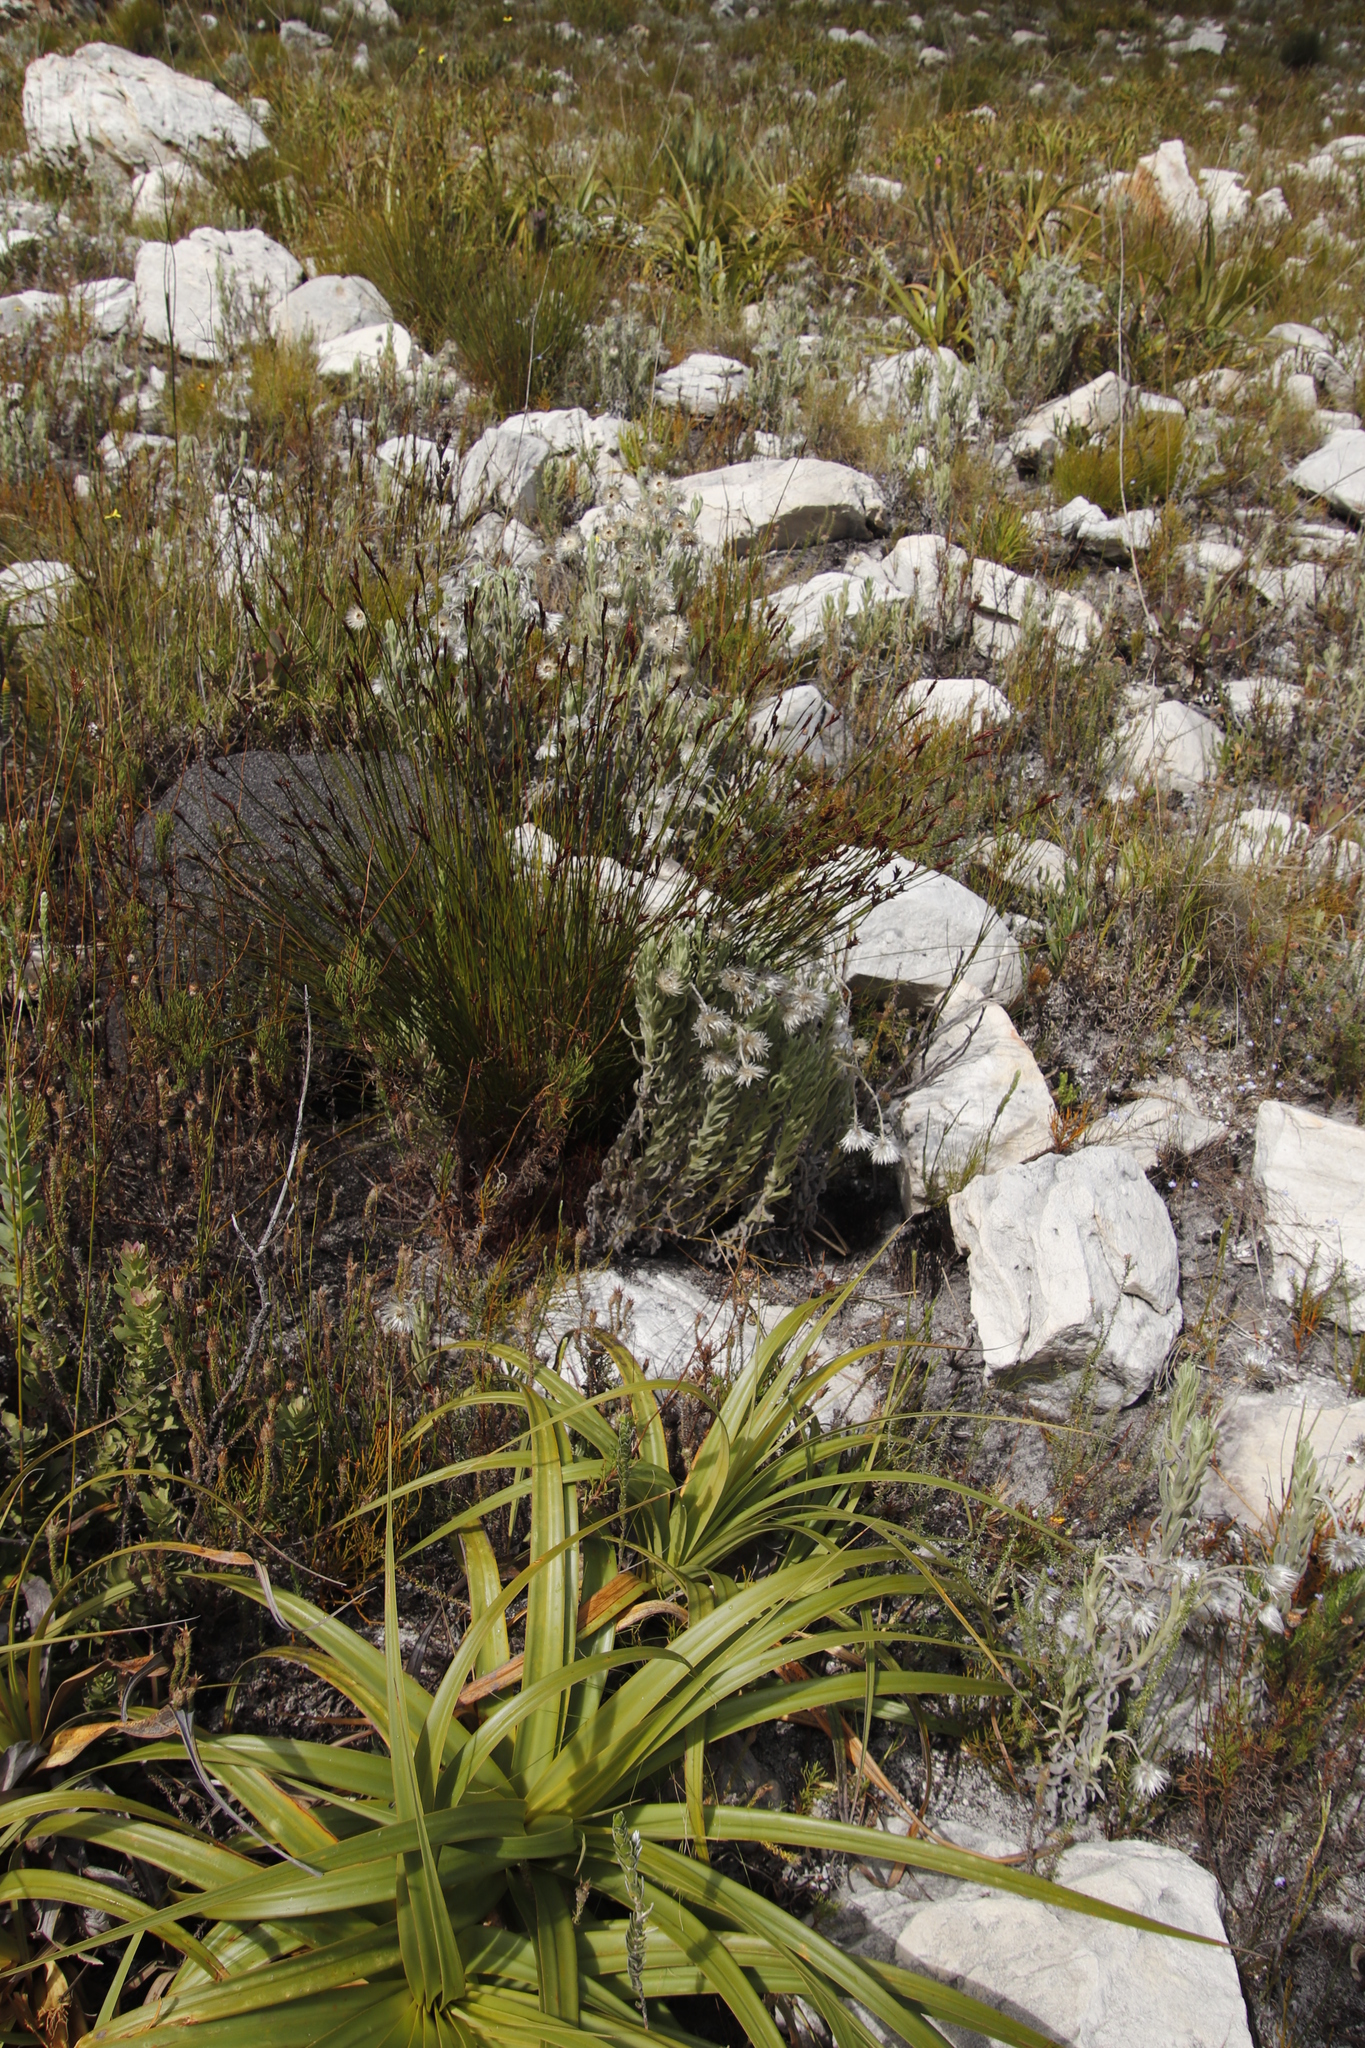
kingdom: Plantae
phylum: Tracheophyta
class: Magnoliopsida
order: Asterales
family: Asteraceae
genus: Syncarpha
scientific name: Syncarpha vestita
